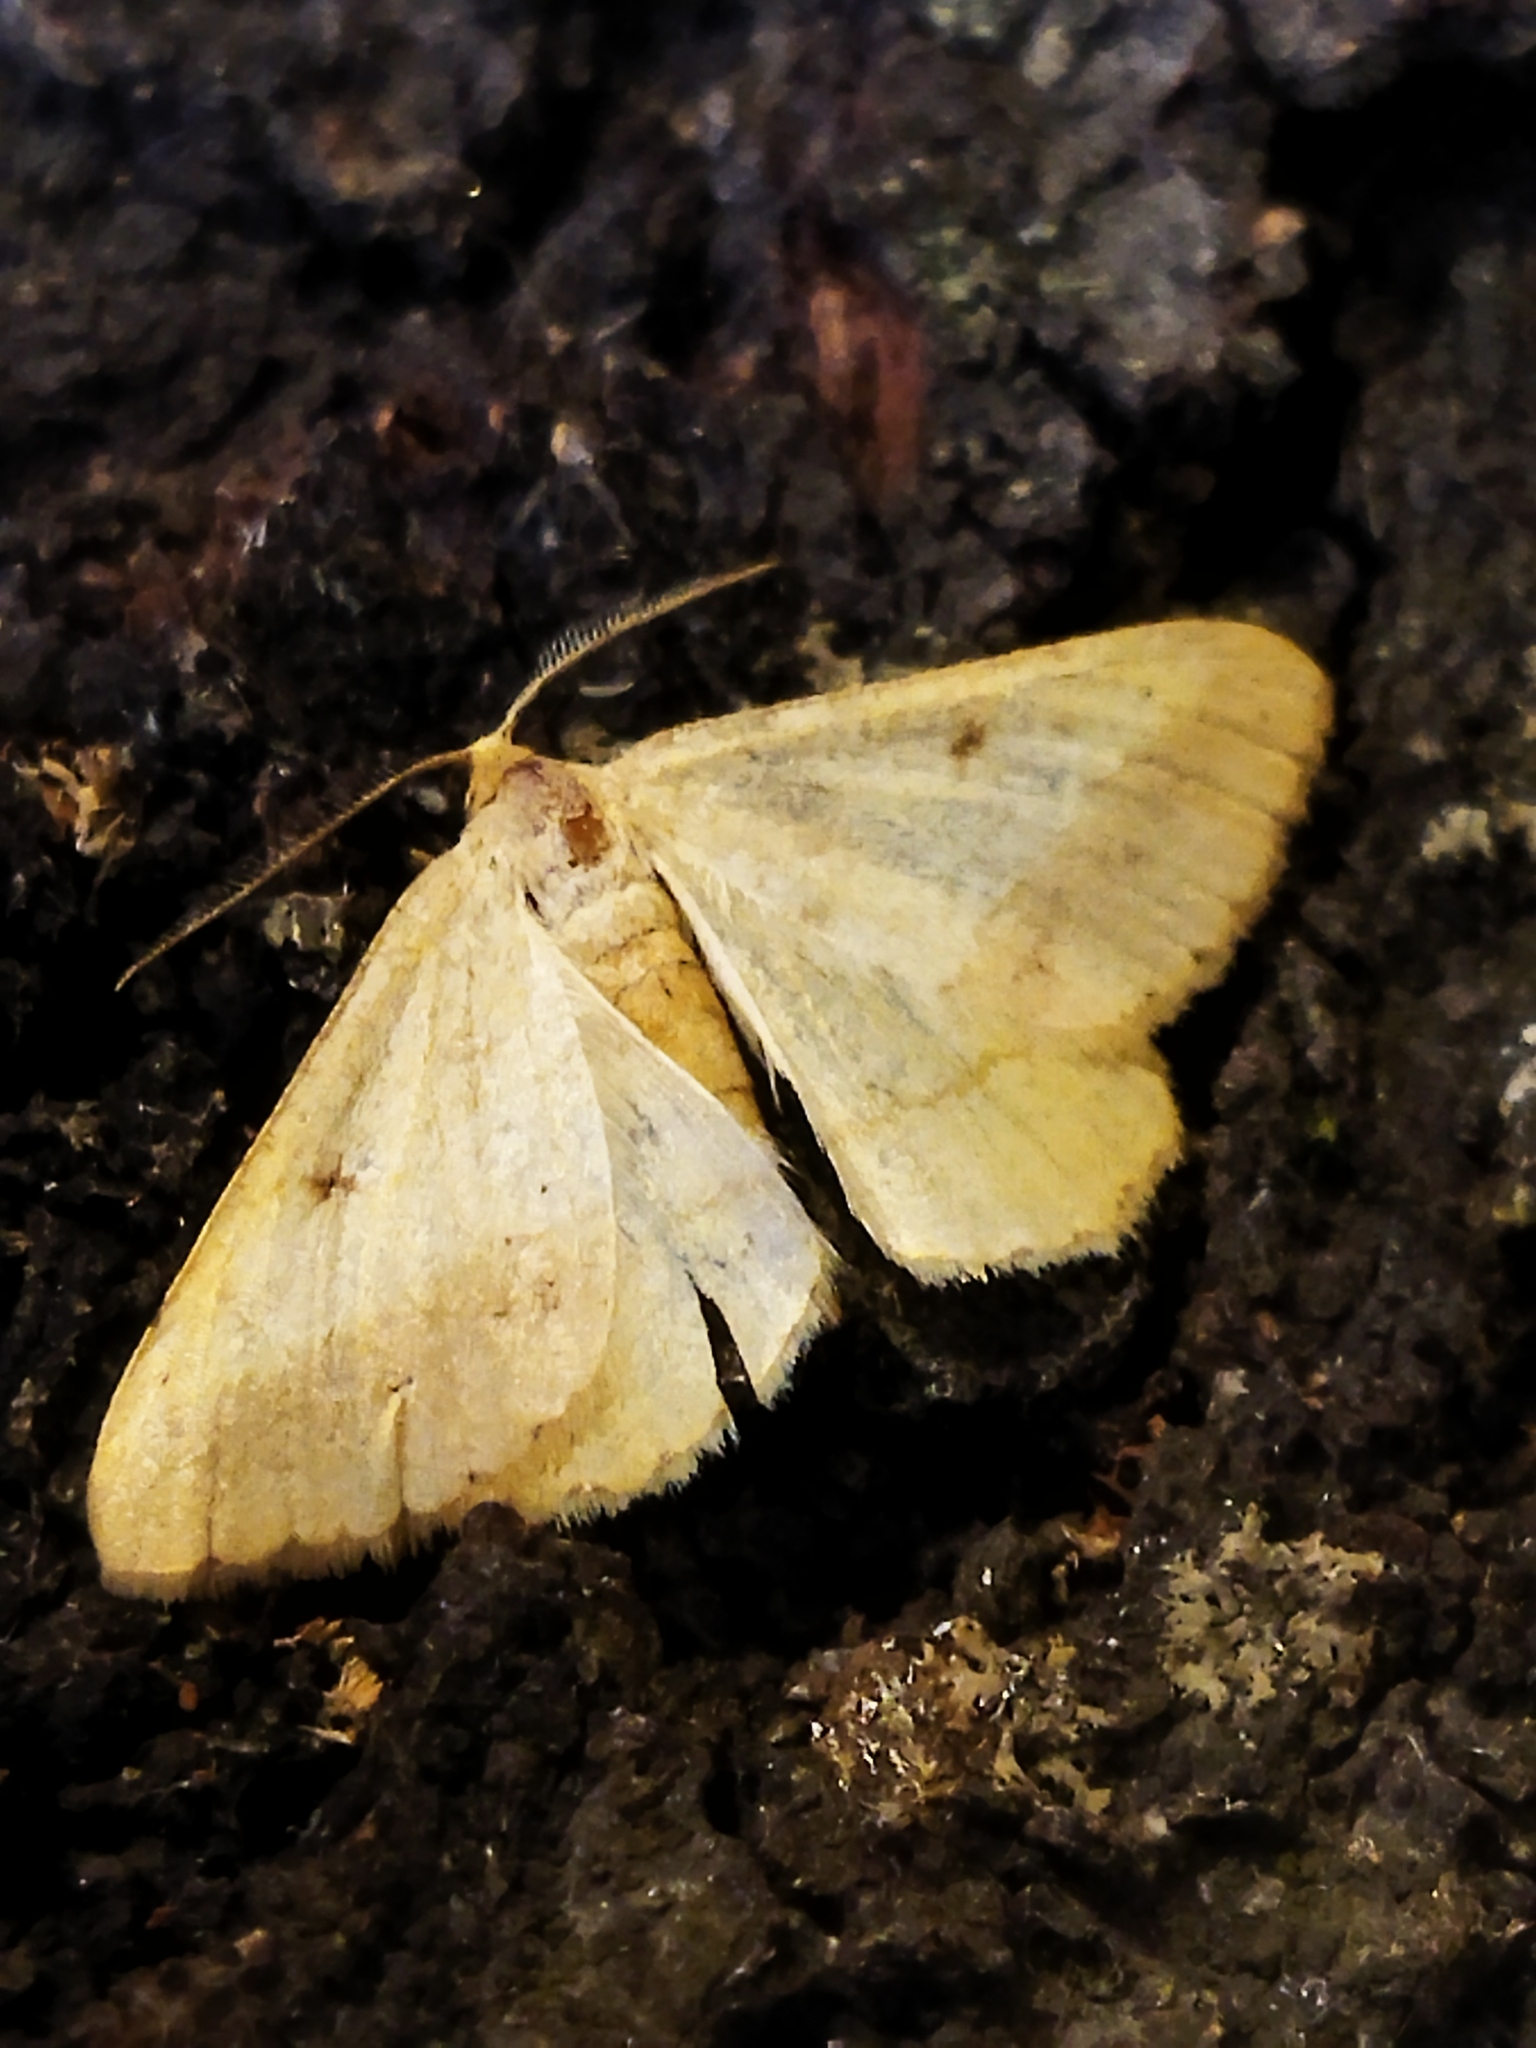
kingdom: Animalia
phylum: Arthropoda
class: Insecta
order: Lepidoptera
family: Geometridae
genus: Tephrina
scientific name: Tephrina arenacearia
